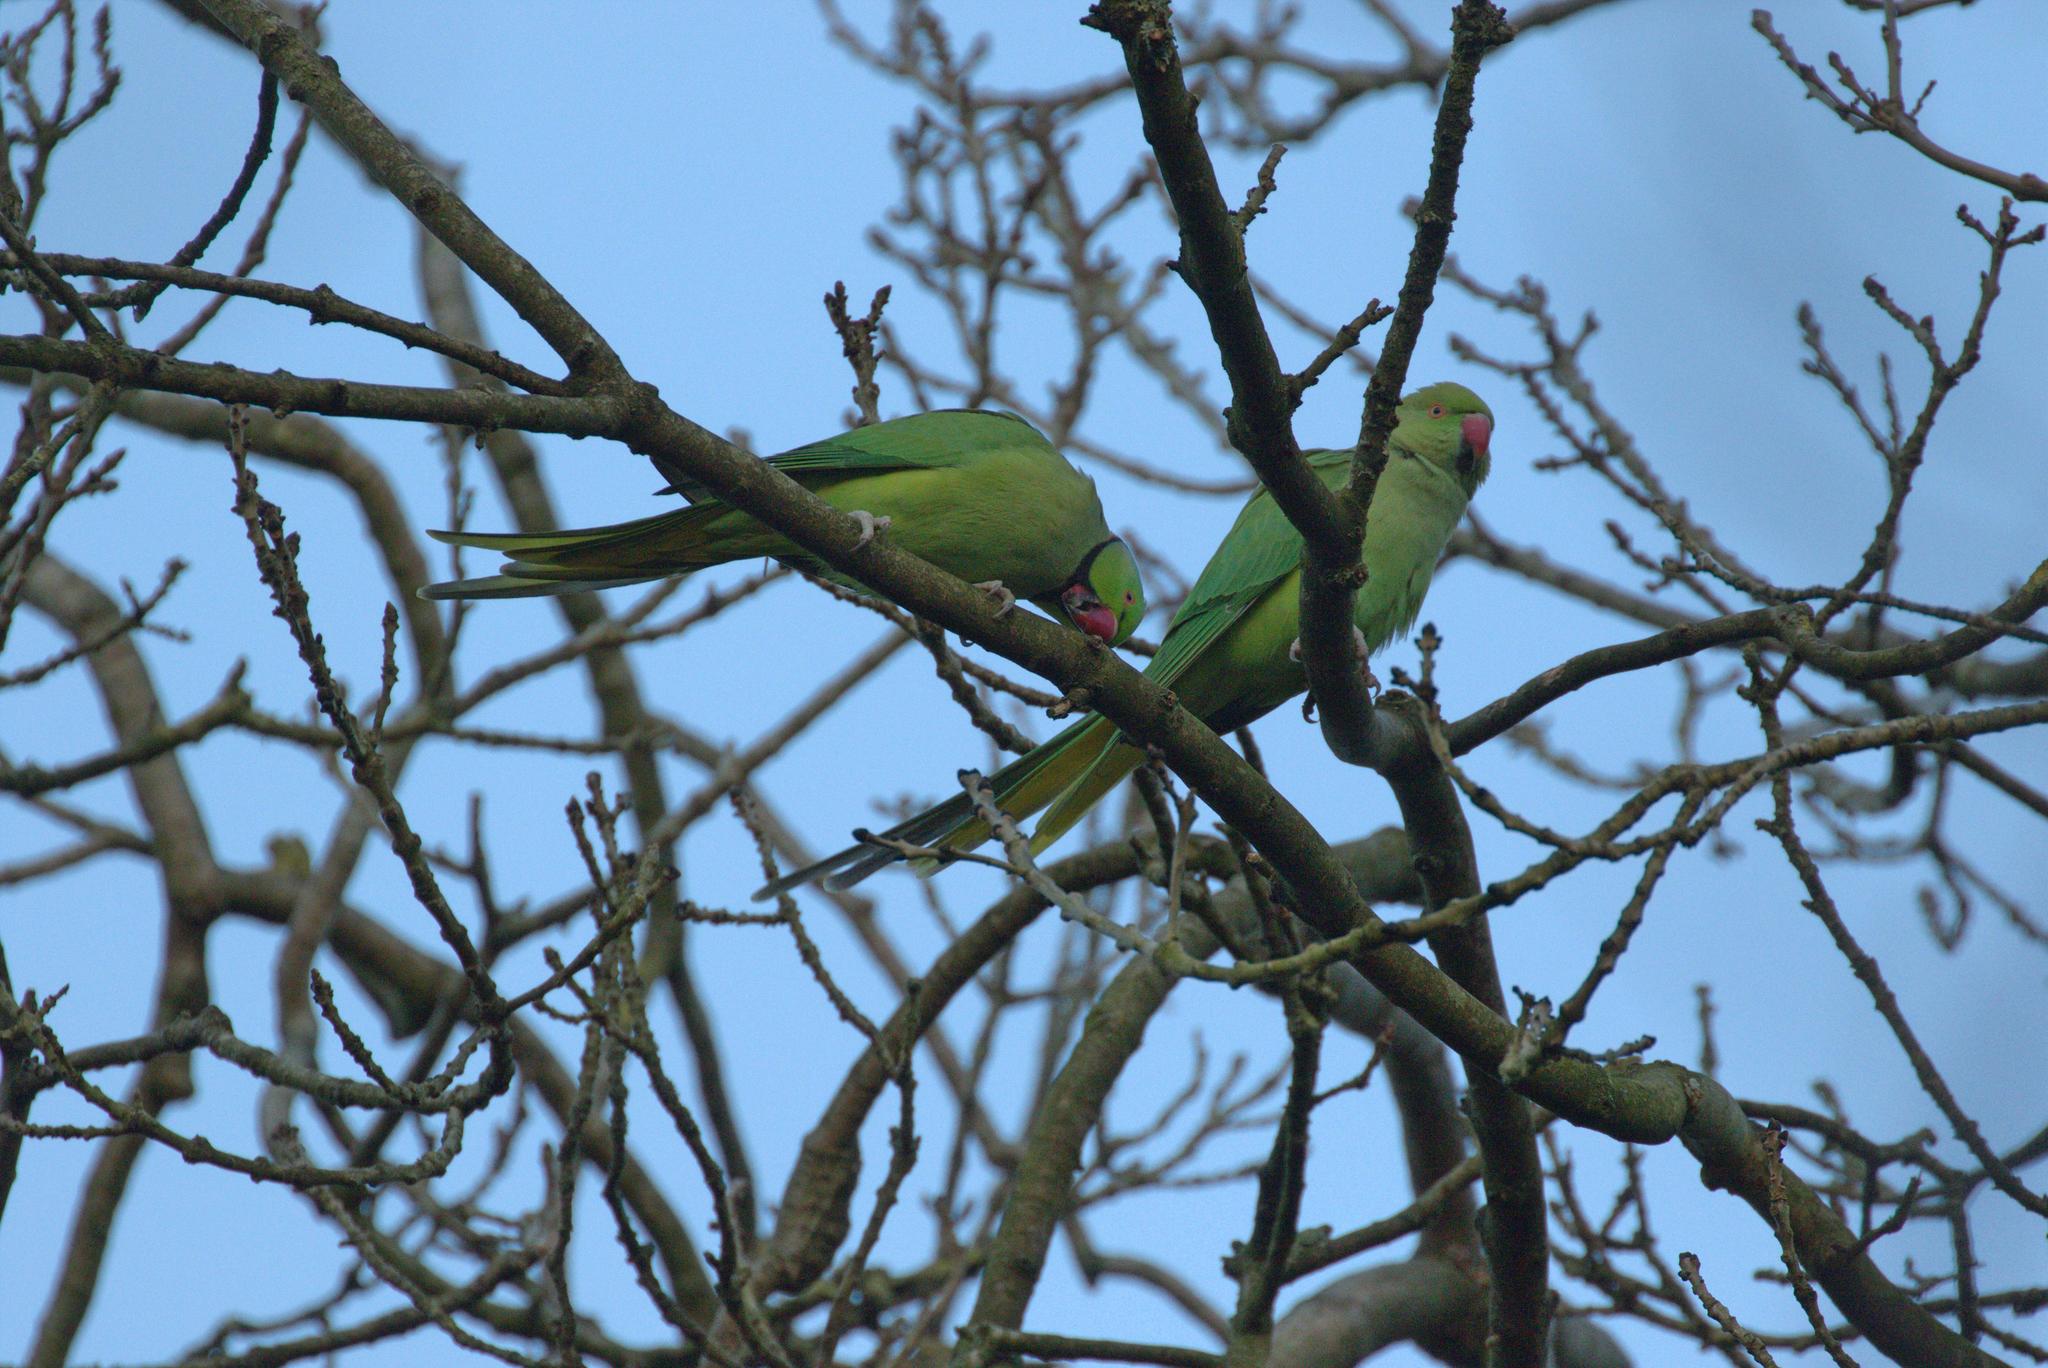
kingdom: Animalia
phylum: Chordata
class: Aves
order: Psittaciformes
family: Psittacidae
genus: Psittacula
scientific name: Psittacula krameri
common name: Rose-ringed parakeet
